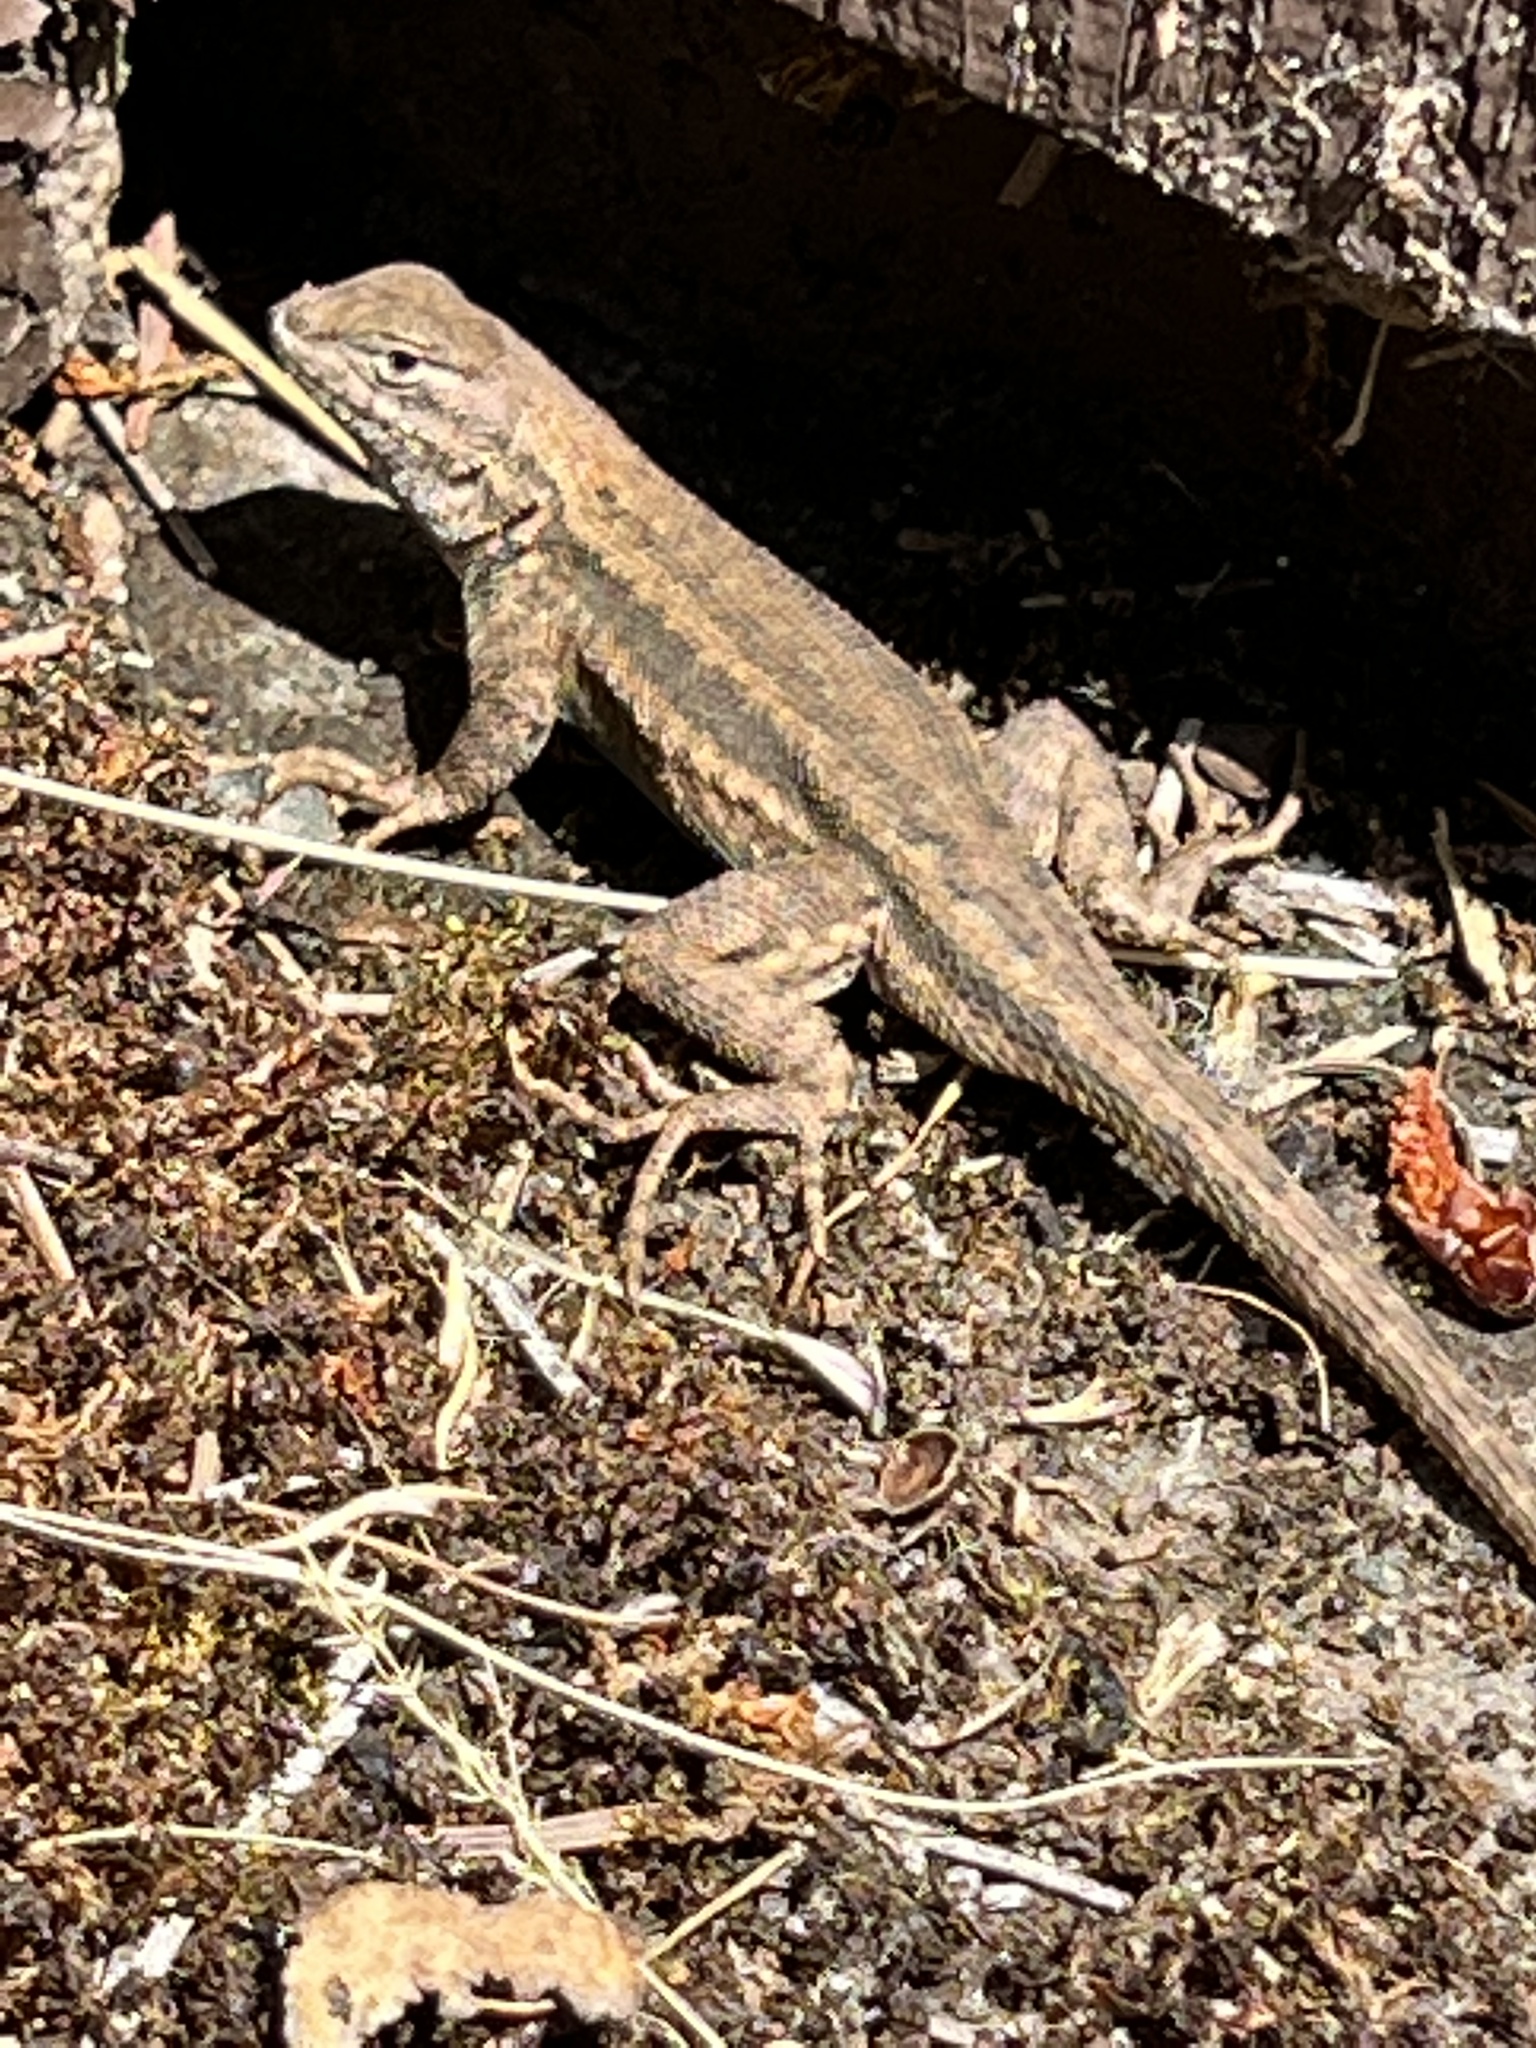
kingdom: Animalia
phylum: Chordata
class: Squamata
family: Phrynosomatidae
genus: Sceloporus
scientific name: Sceloporus graciosus
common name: Sagebrush lizard
